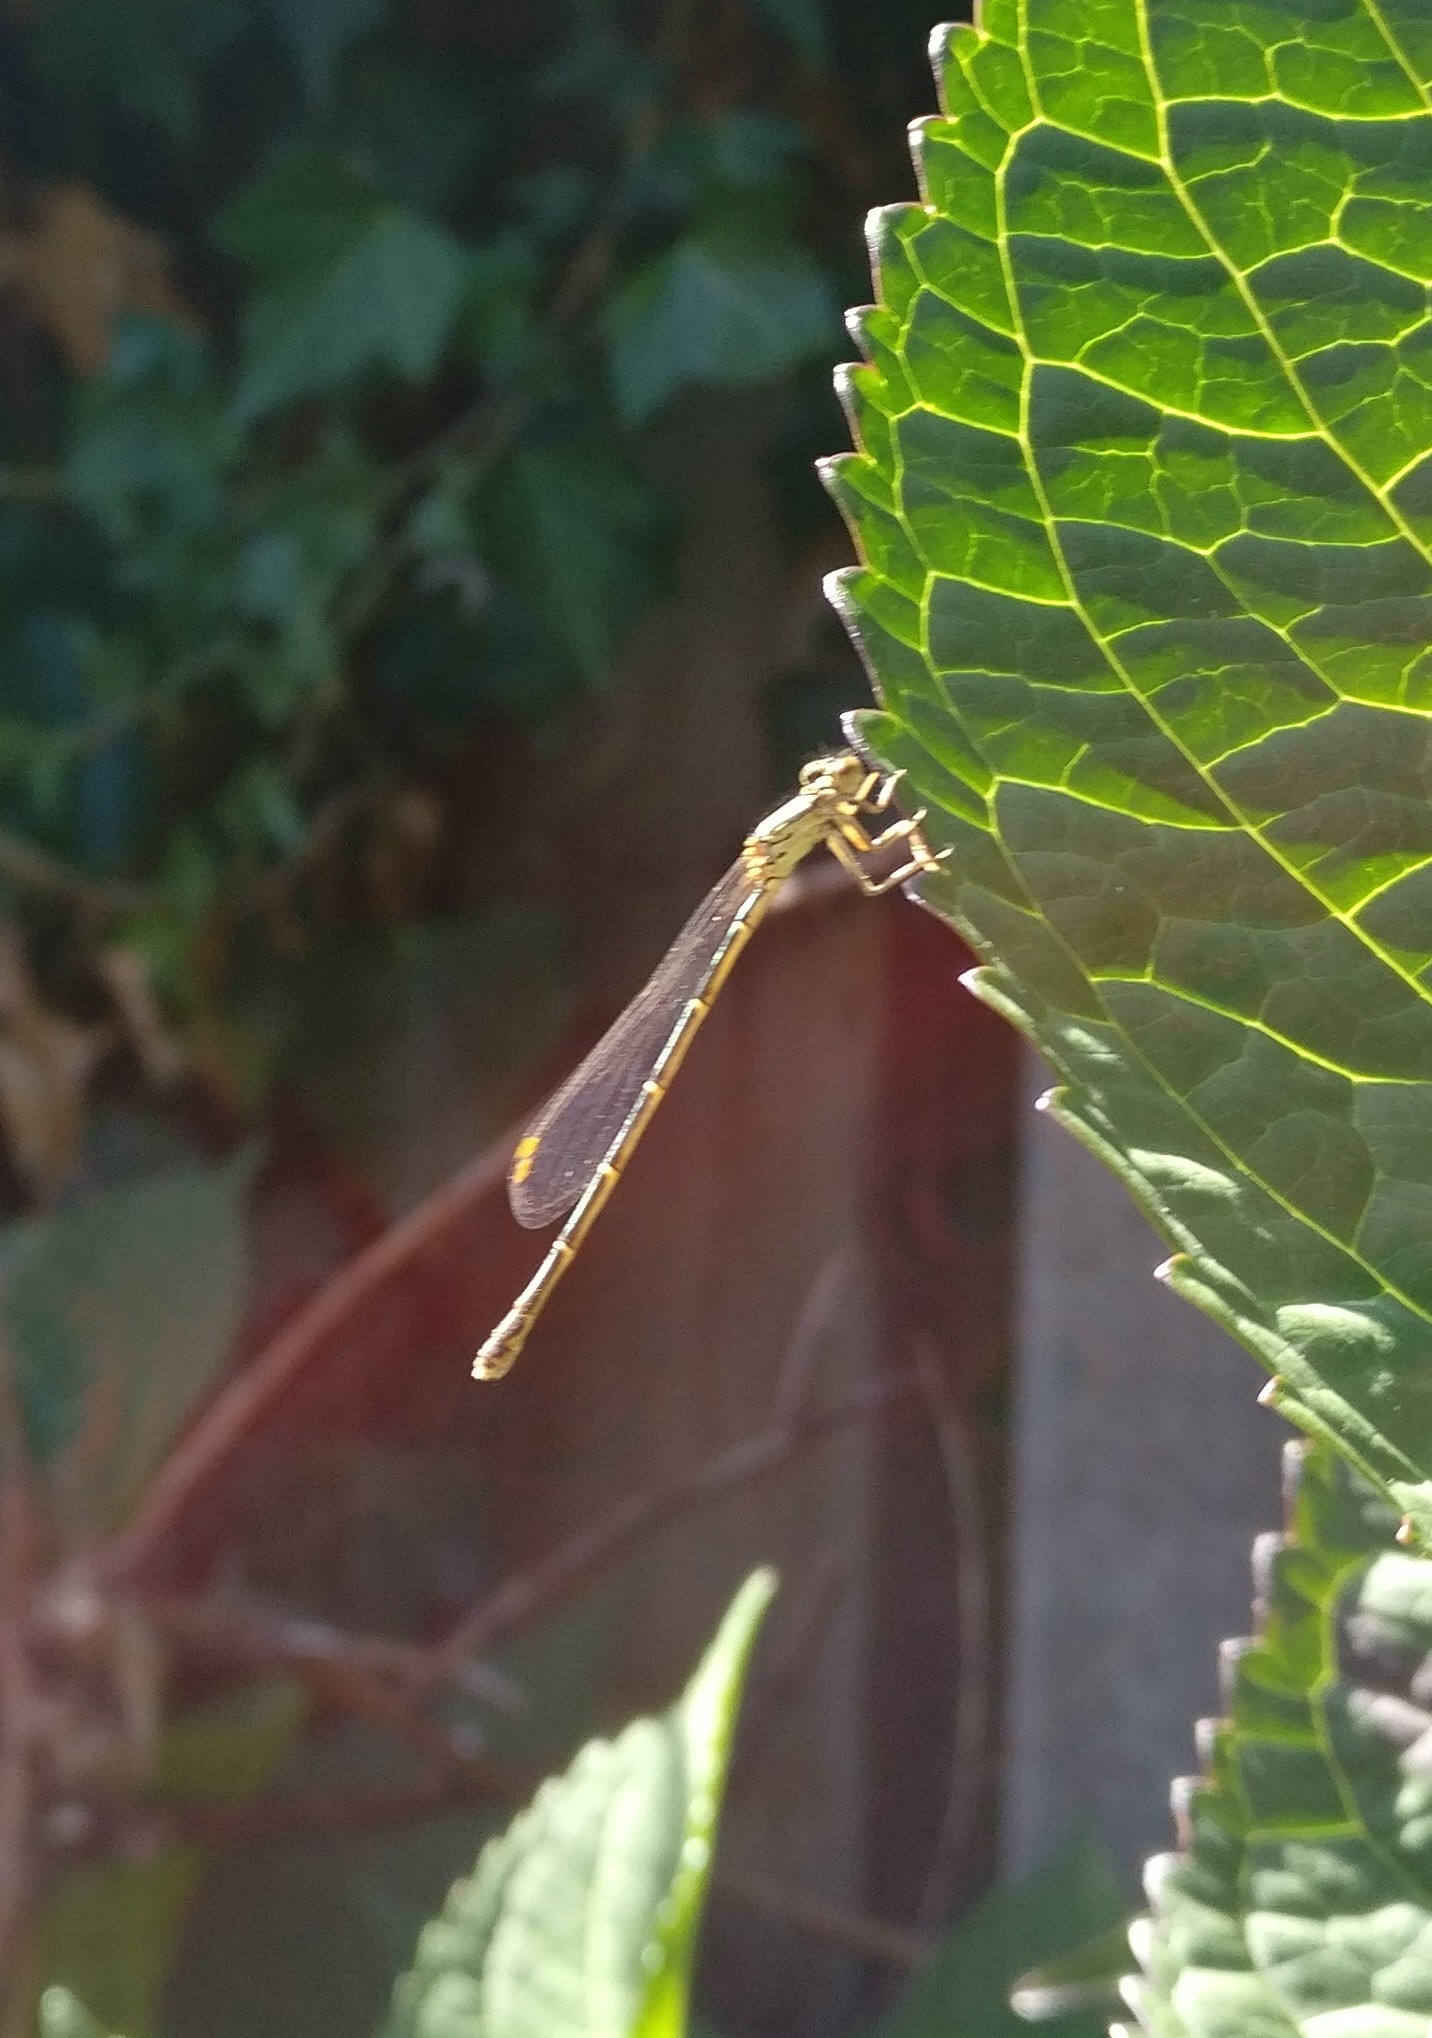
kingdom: Animalia
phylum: Arthropoda
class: Insecta
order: Odonata
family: Coenagrionidae
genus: Xanthocnemis
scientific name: Xanthocnemis zealandica
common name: Common redcoat damselfly
